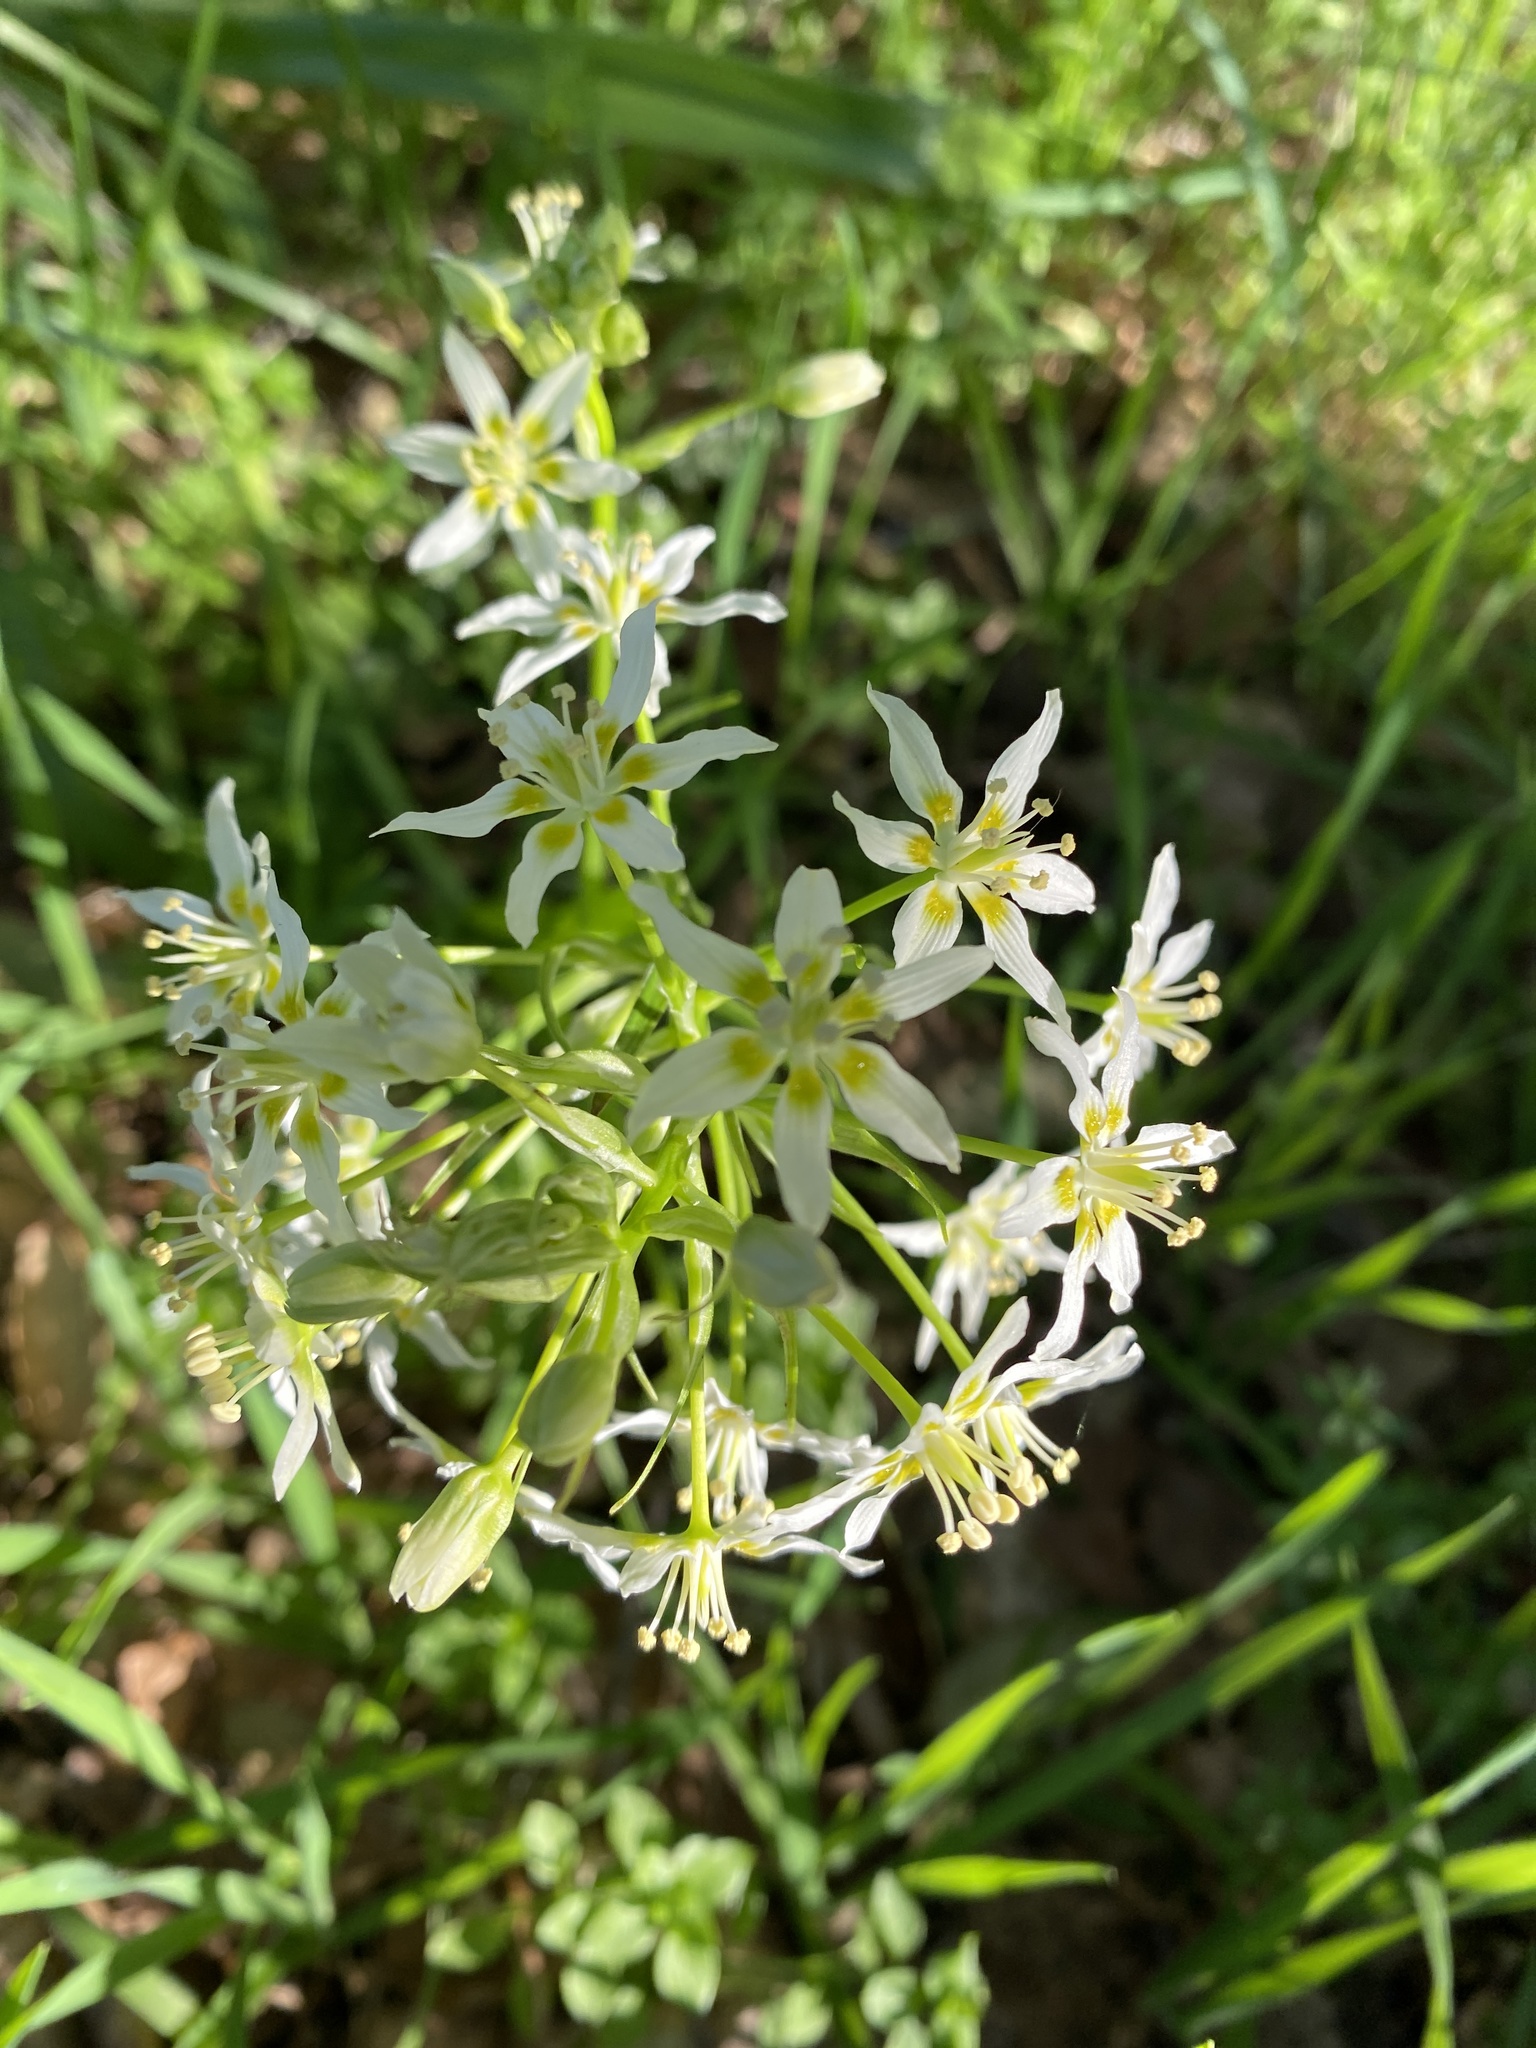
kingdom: Plantae
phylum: Tracheophyta
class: Liliopsida
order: Liliales
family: Melanthiaceae
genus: Toxicoscordion
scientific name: Toxicoscordion fremontii
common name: Fremont's death camas
